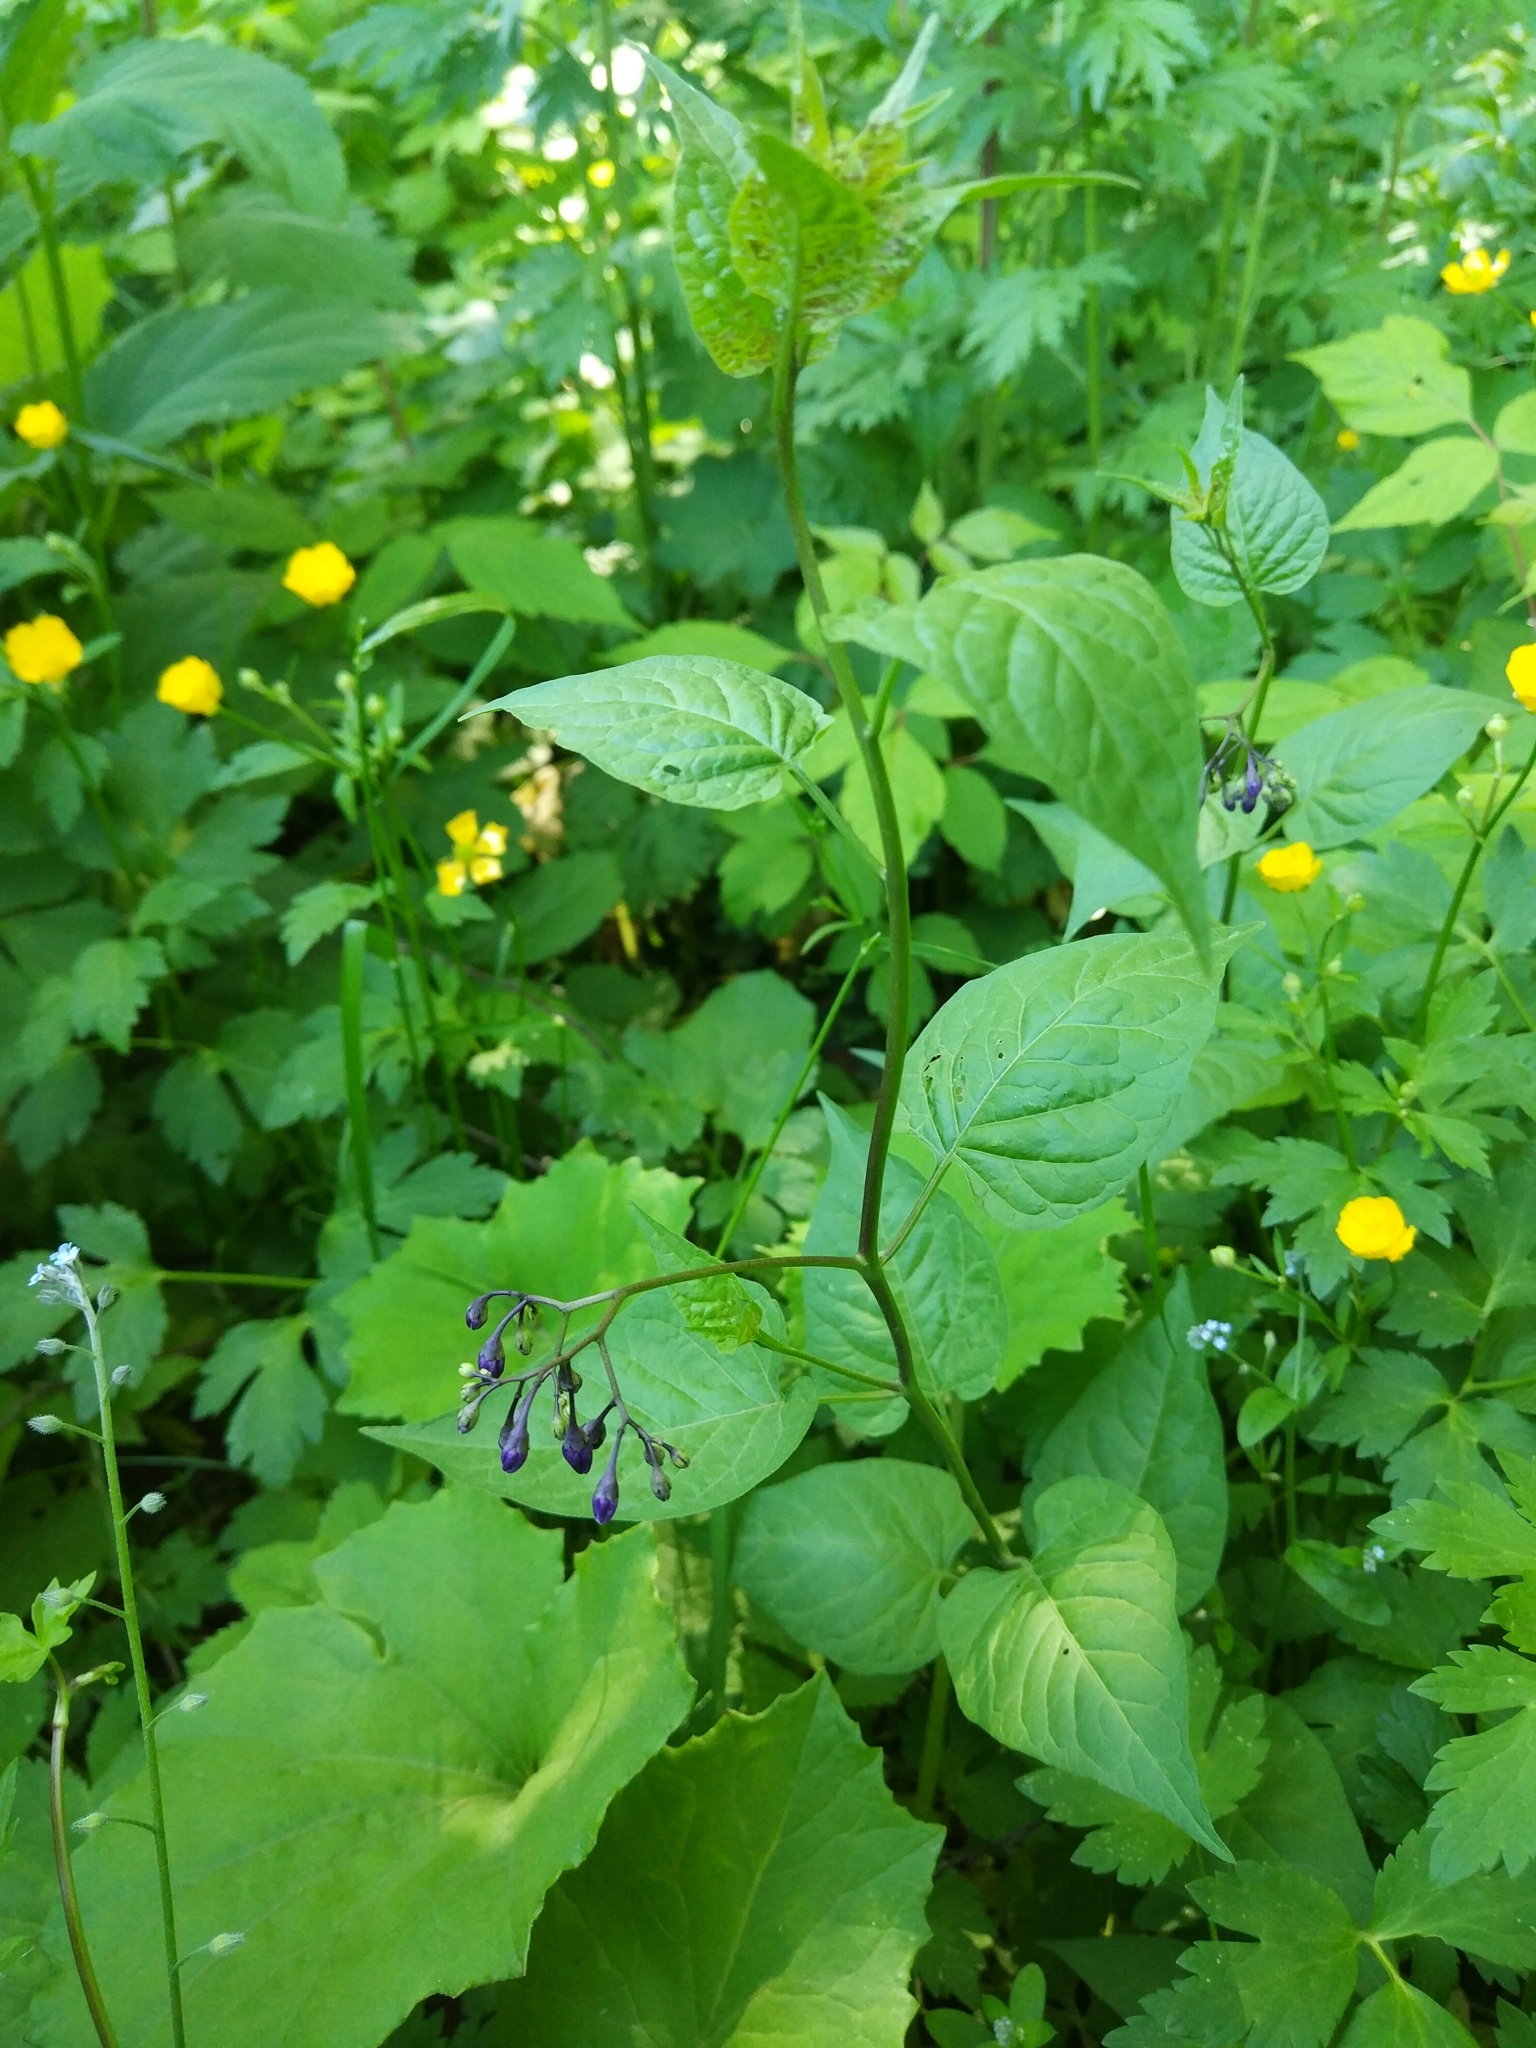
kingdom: Plantae
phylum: Tracheophyta
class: Magnoliopsida
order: Solanales
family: Solanaceae
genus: Solanum
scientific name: Solanum dulcamara
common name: Climbing nightshade
